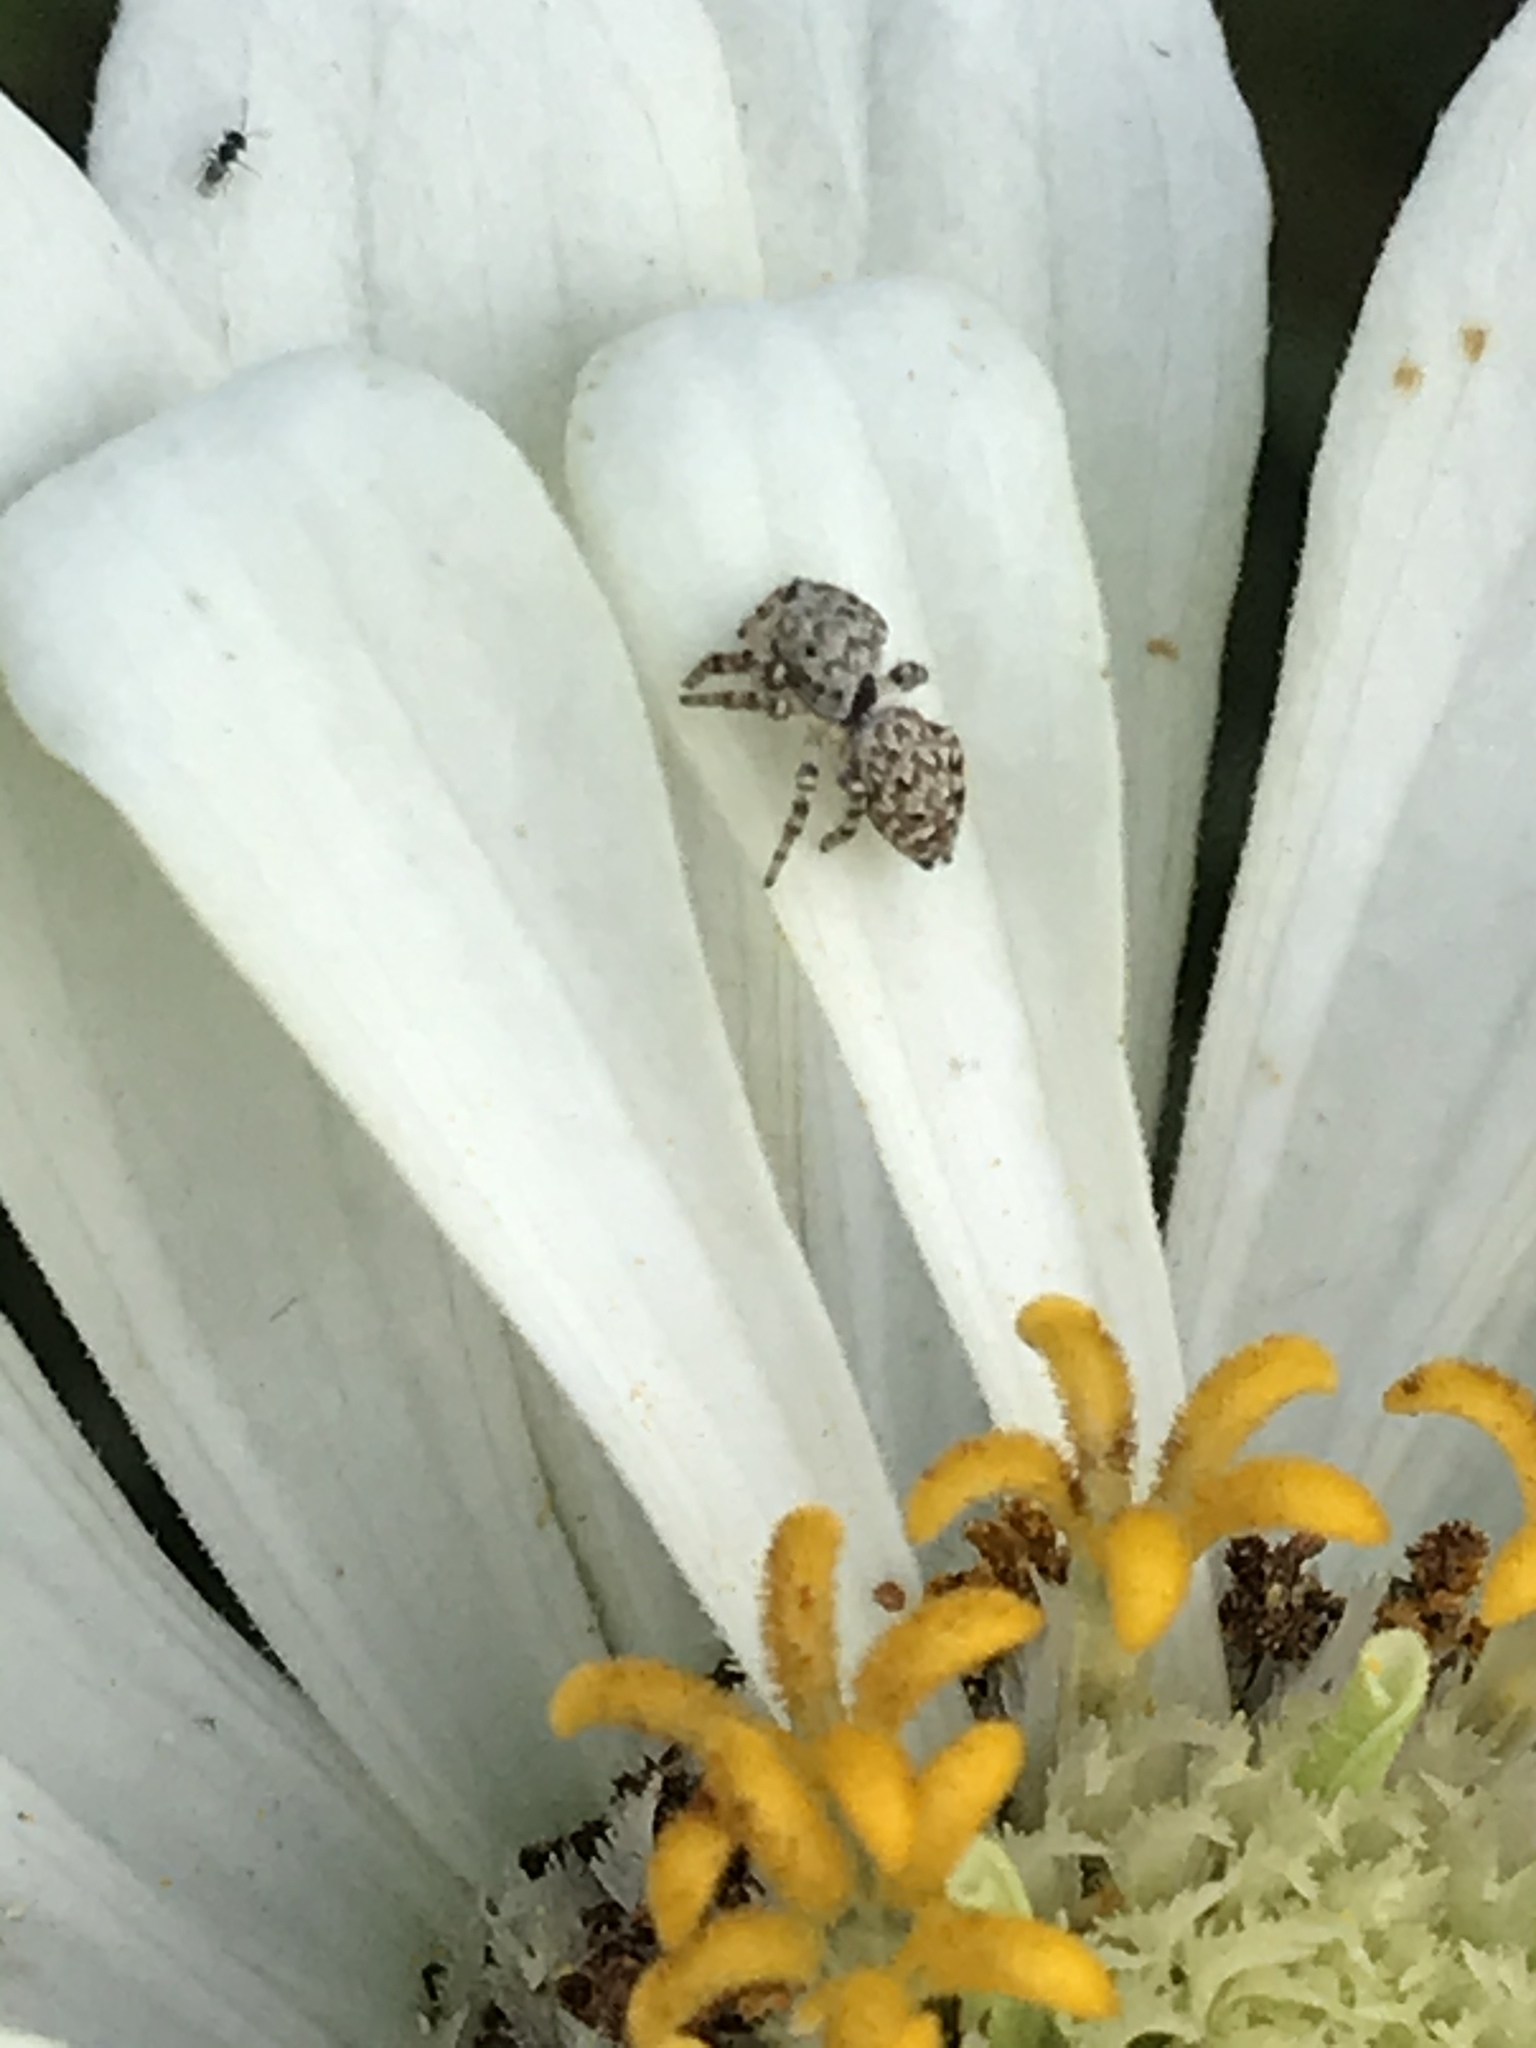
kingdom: Animalia
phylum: Arthropoda
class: Arachnida
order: Araneae
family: Salticidae
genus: Pelegrina
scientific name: Pelegrina galathea
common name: Jumping spiders
